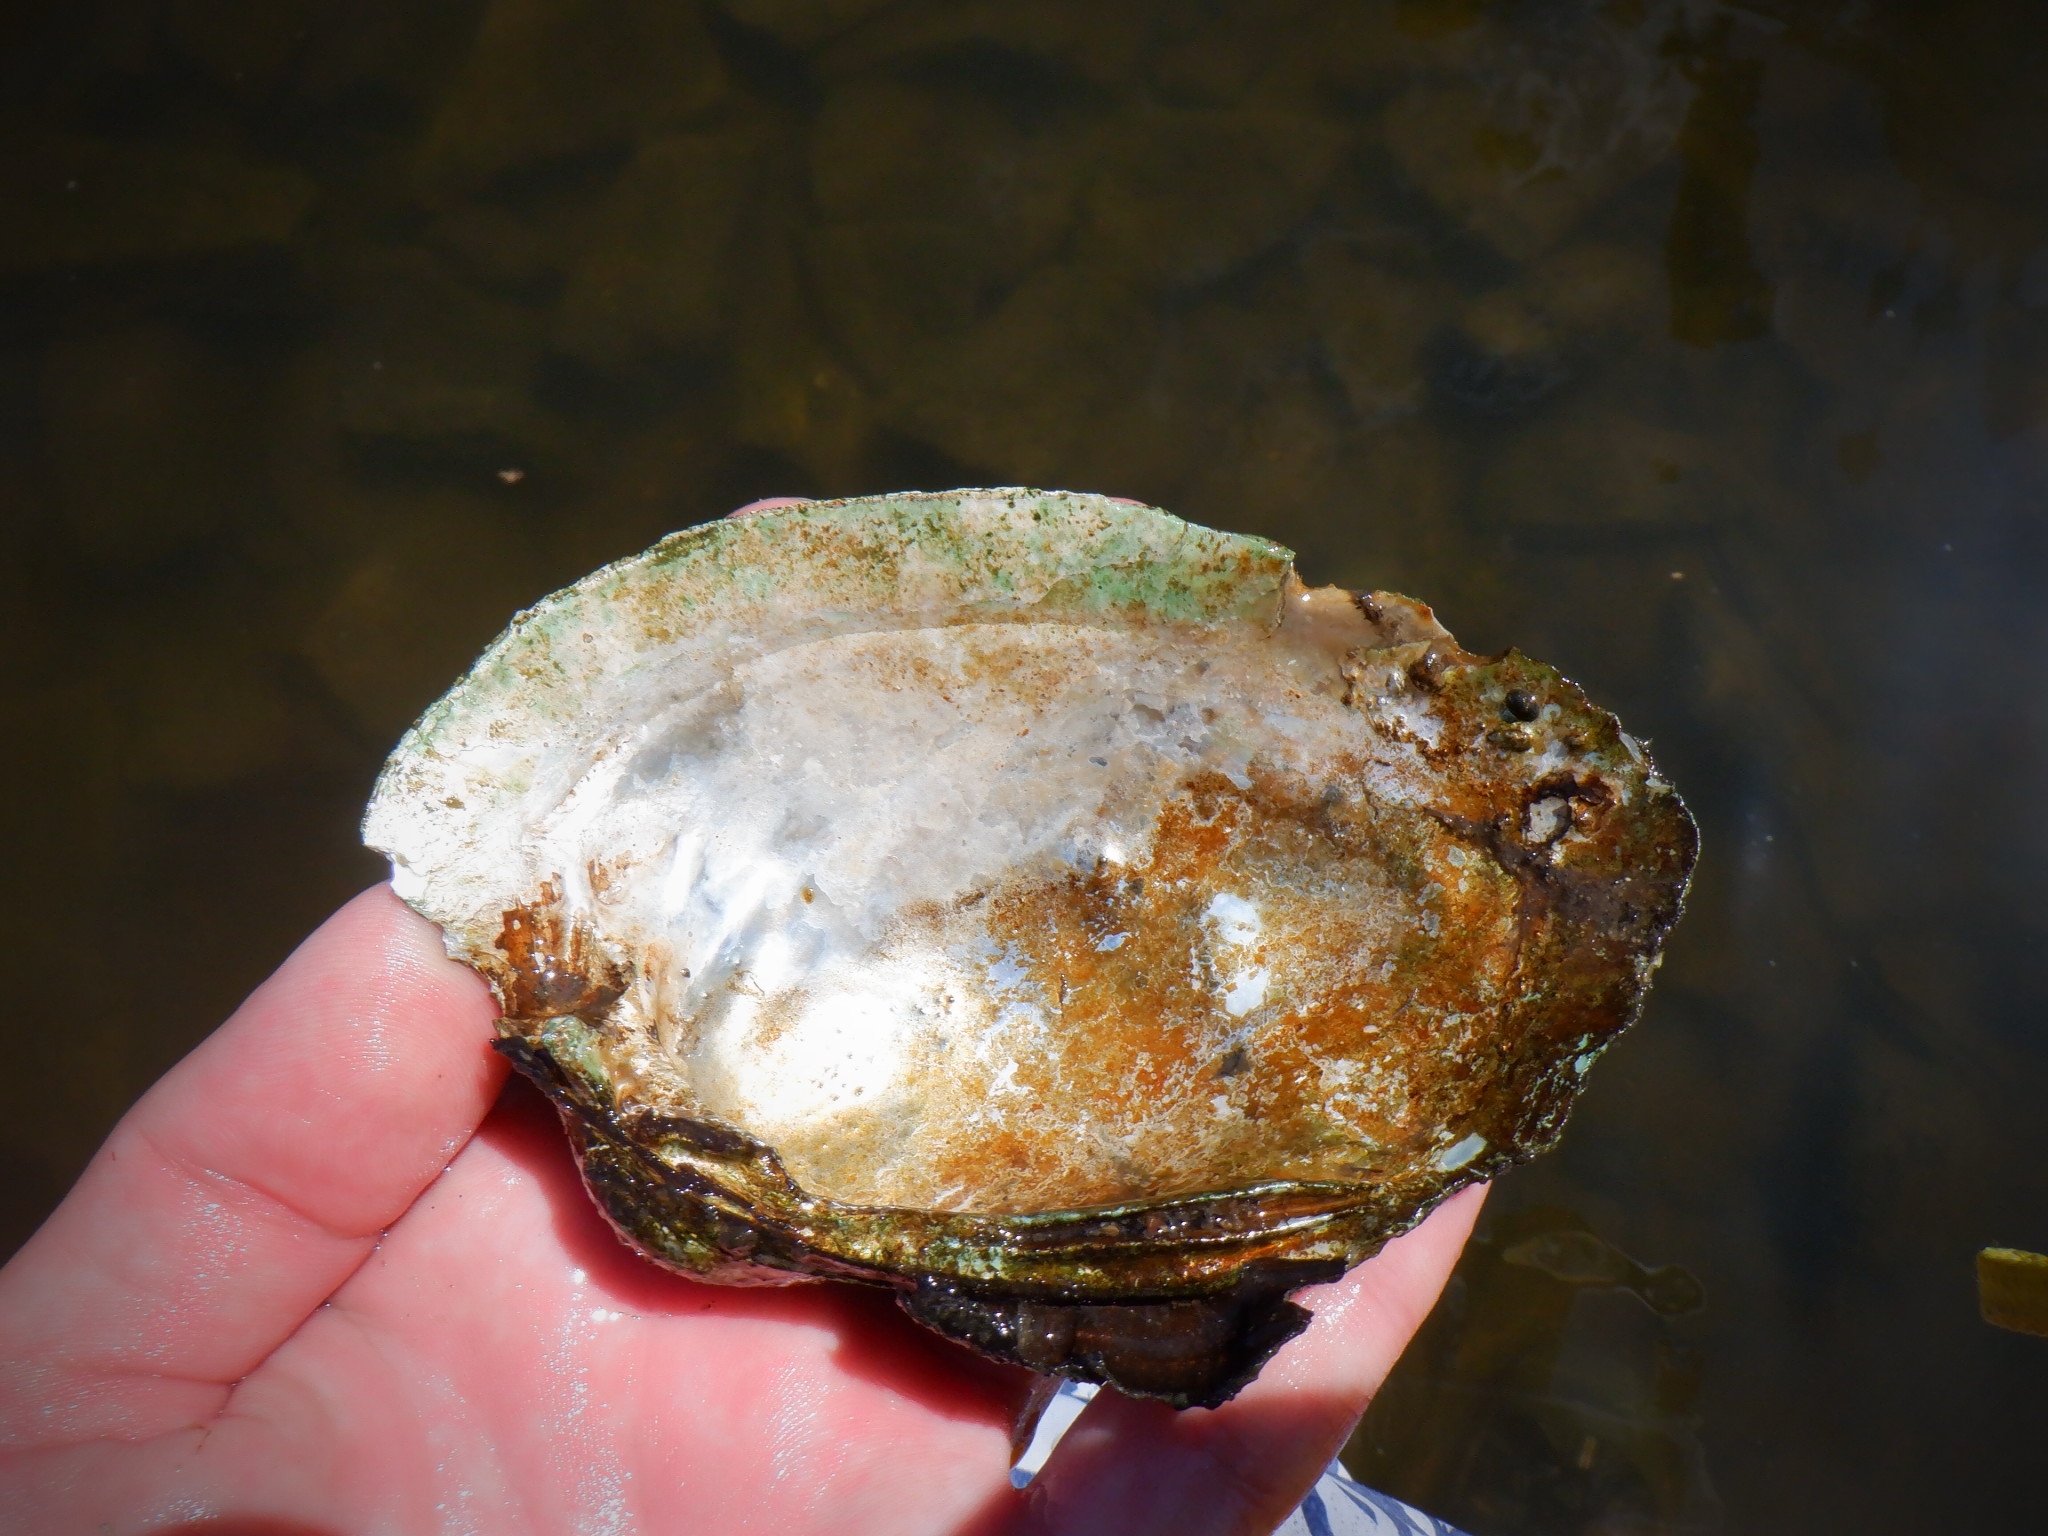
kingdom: Animalia
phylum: Mollusca
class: Bivalvia
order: Unionida
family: Unionidae
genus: Lampsilis
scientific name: Lampsilis cardium
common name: Plain pocketbook
